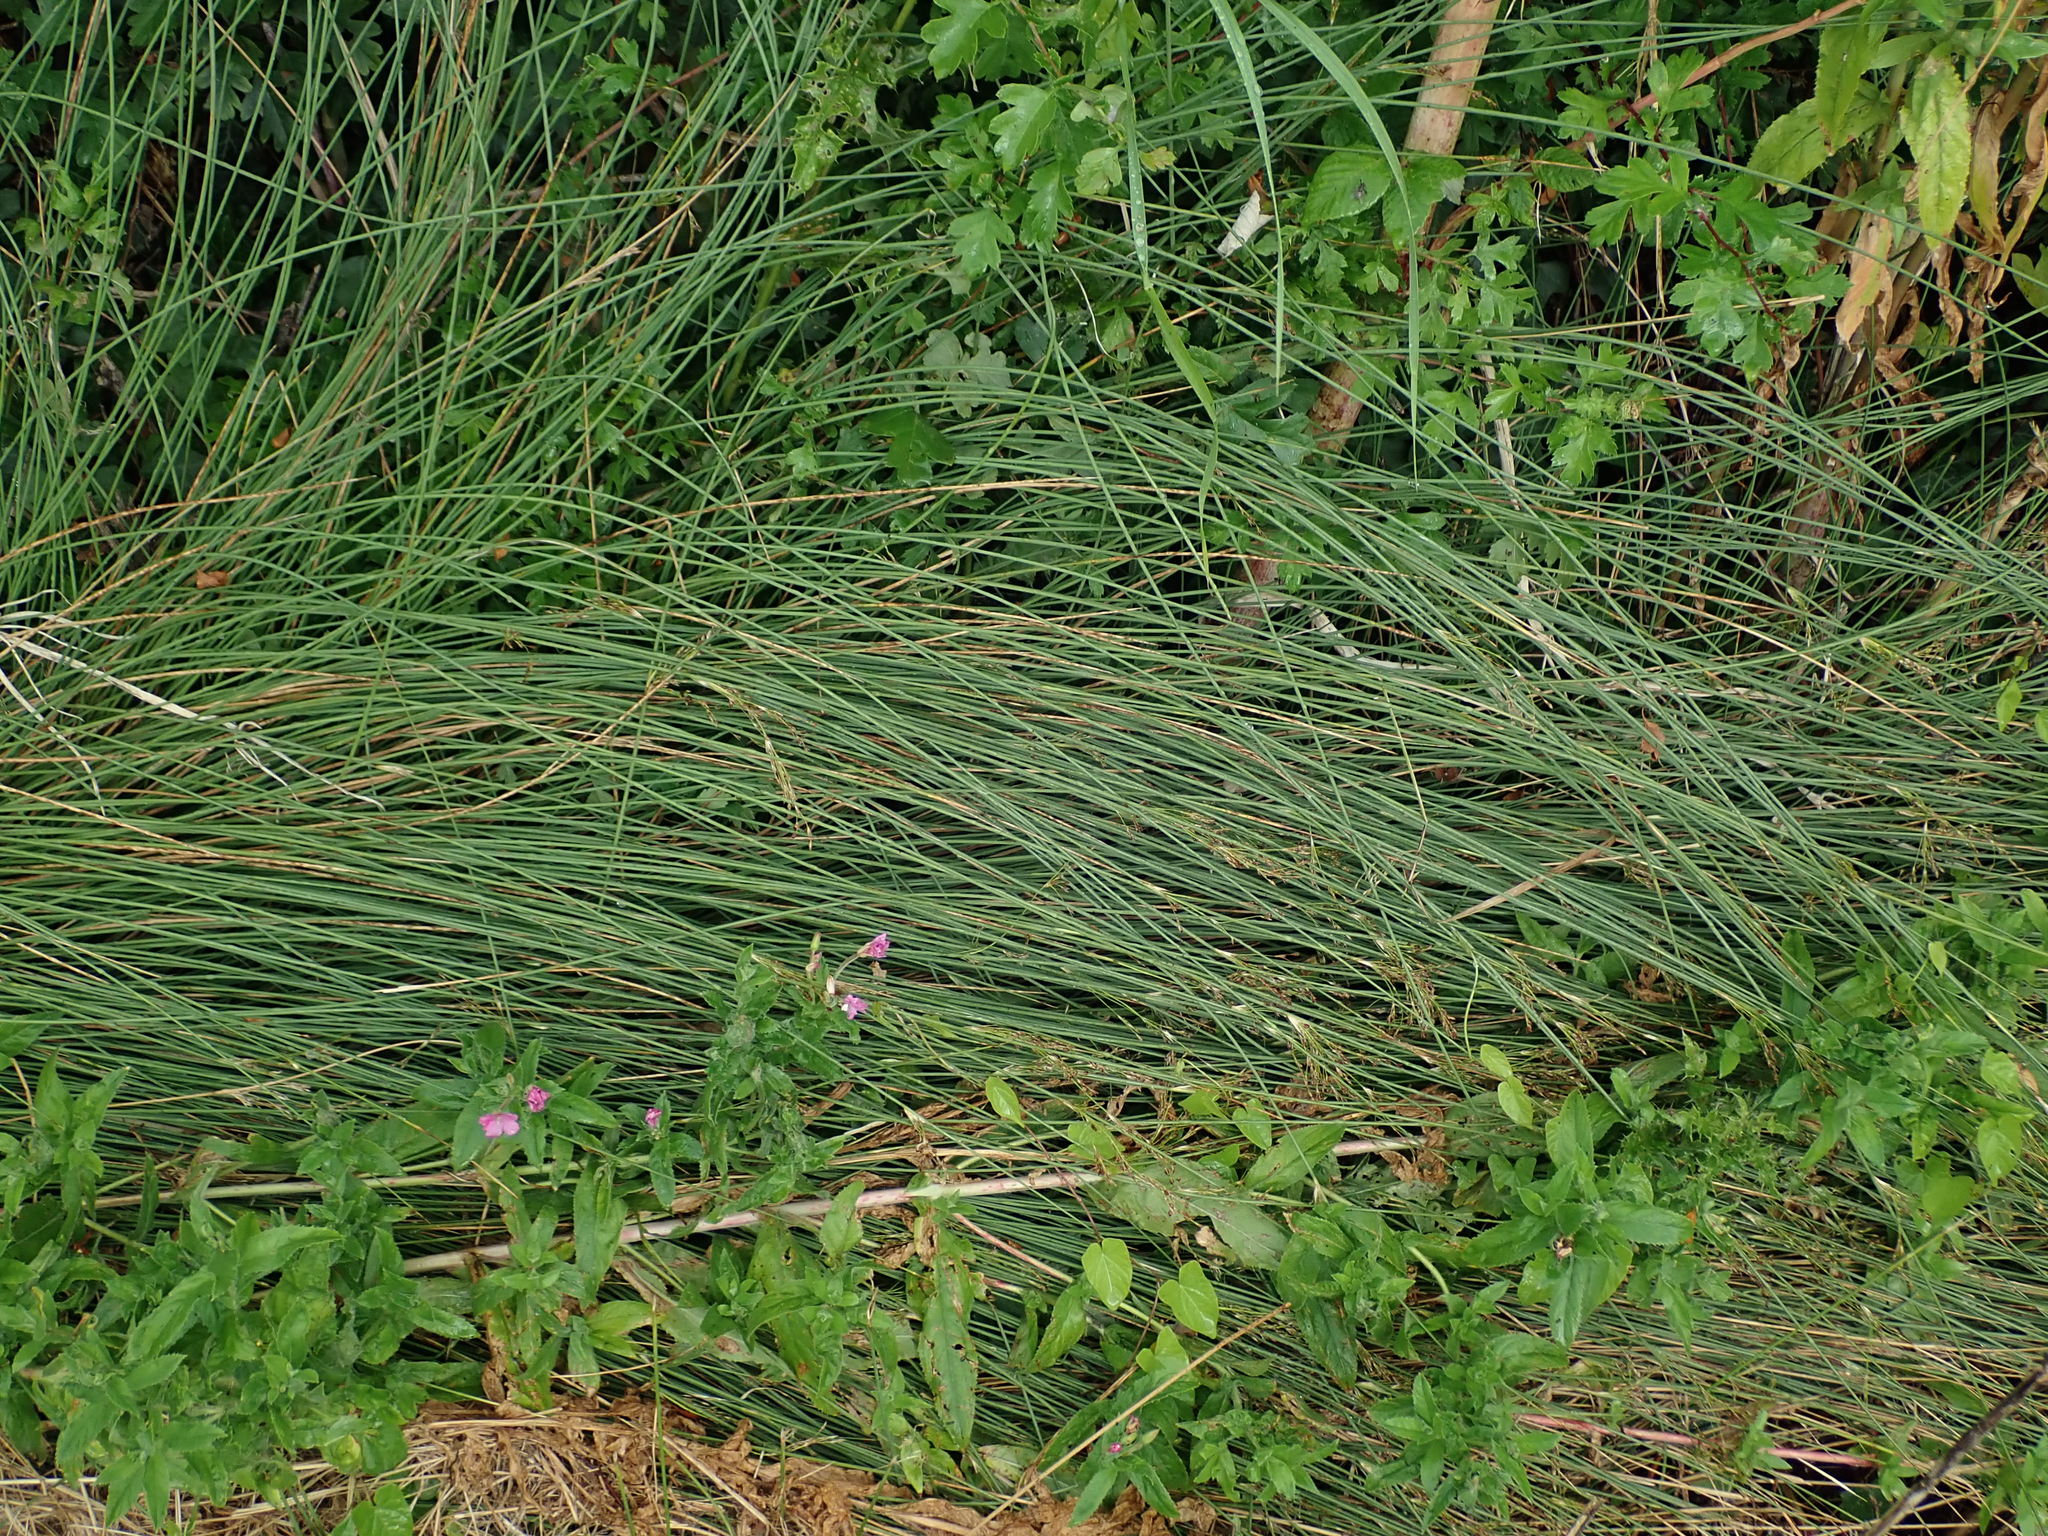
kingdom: Plantae
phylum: Tracheophyta
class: Liliopsida
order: Poales
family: Juncaceae
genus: Juncus
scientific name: Juncus inflexus
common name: Hard rush
